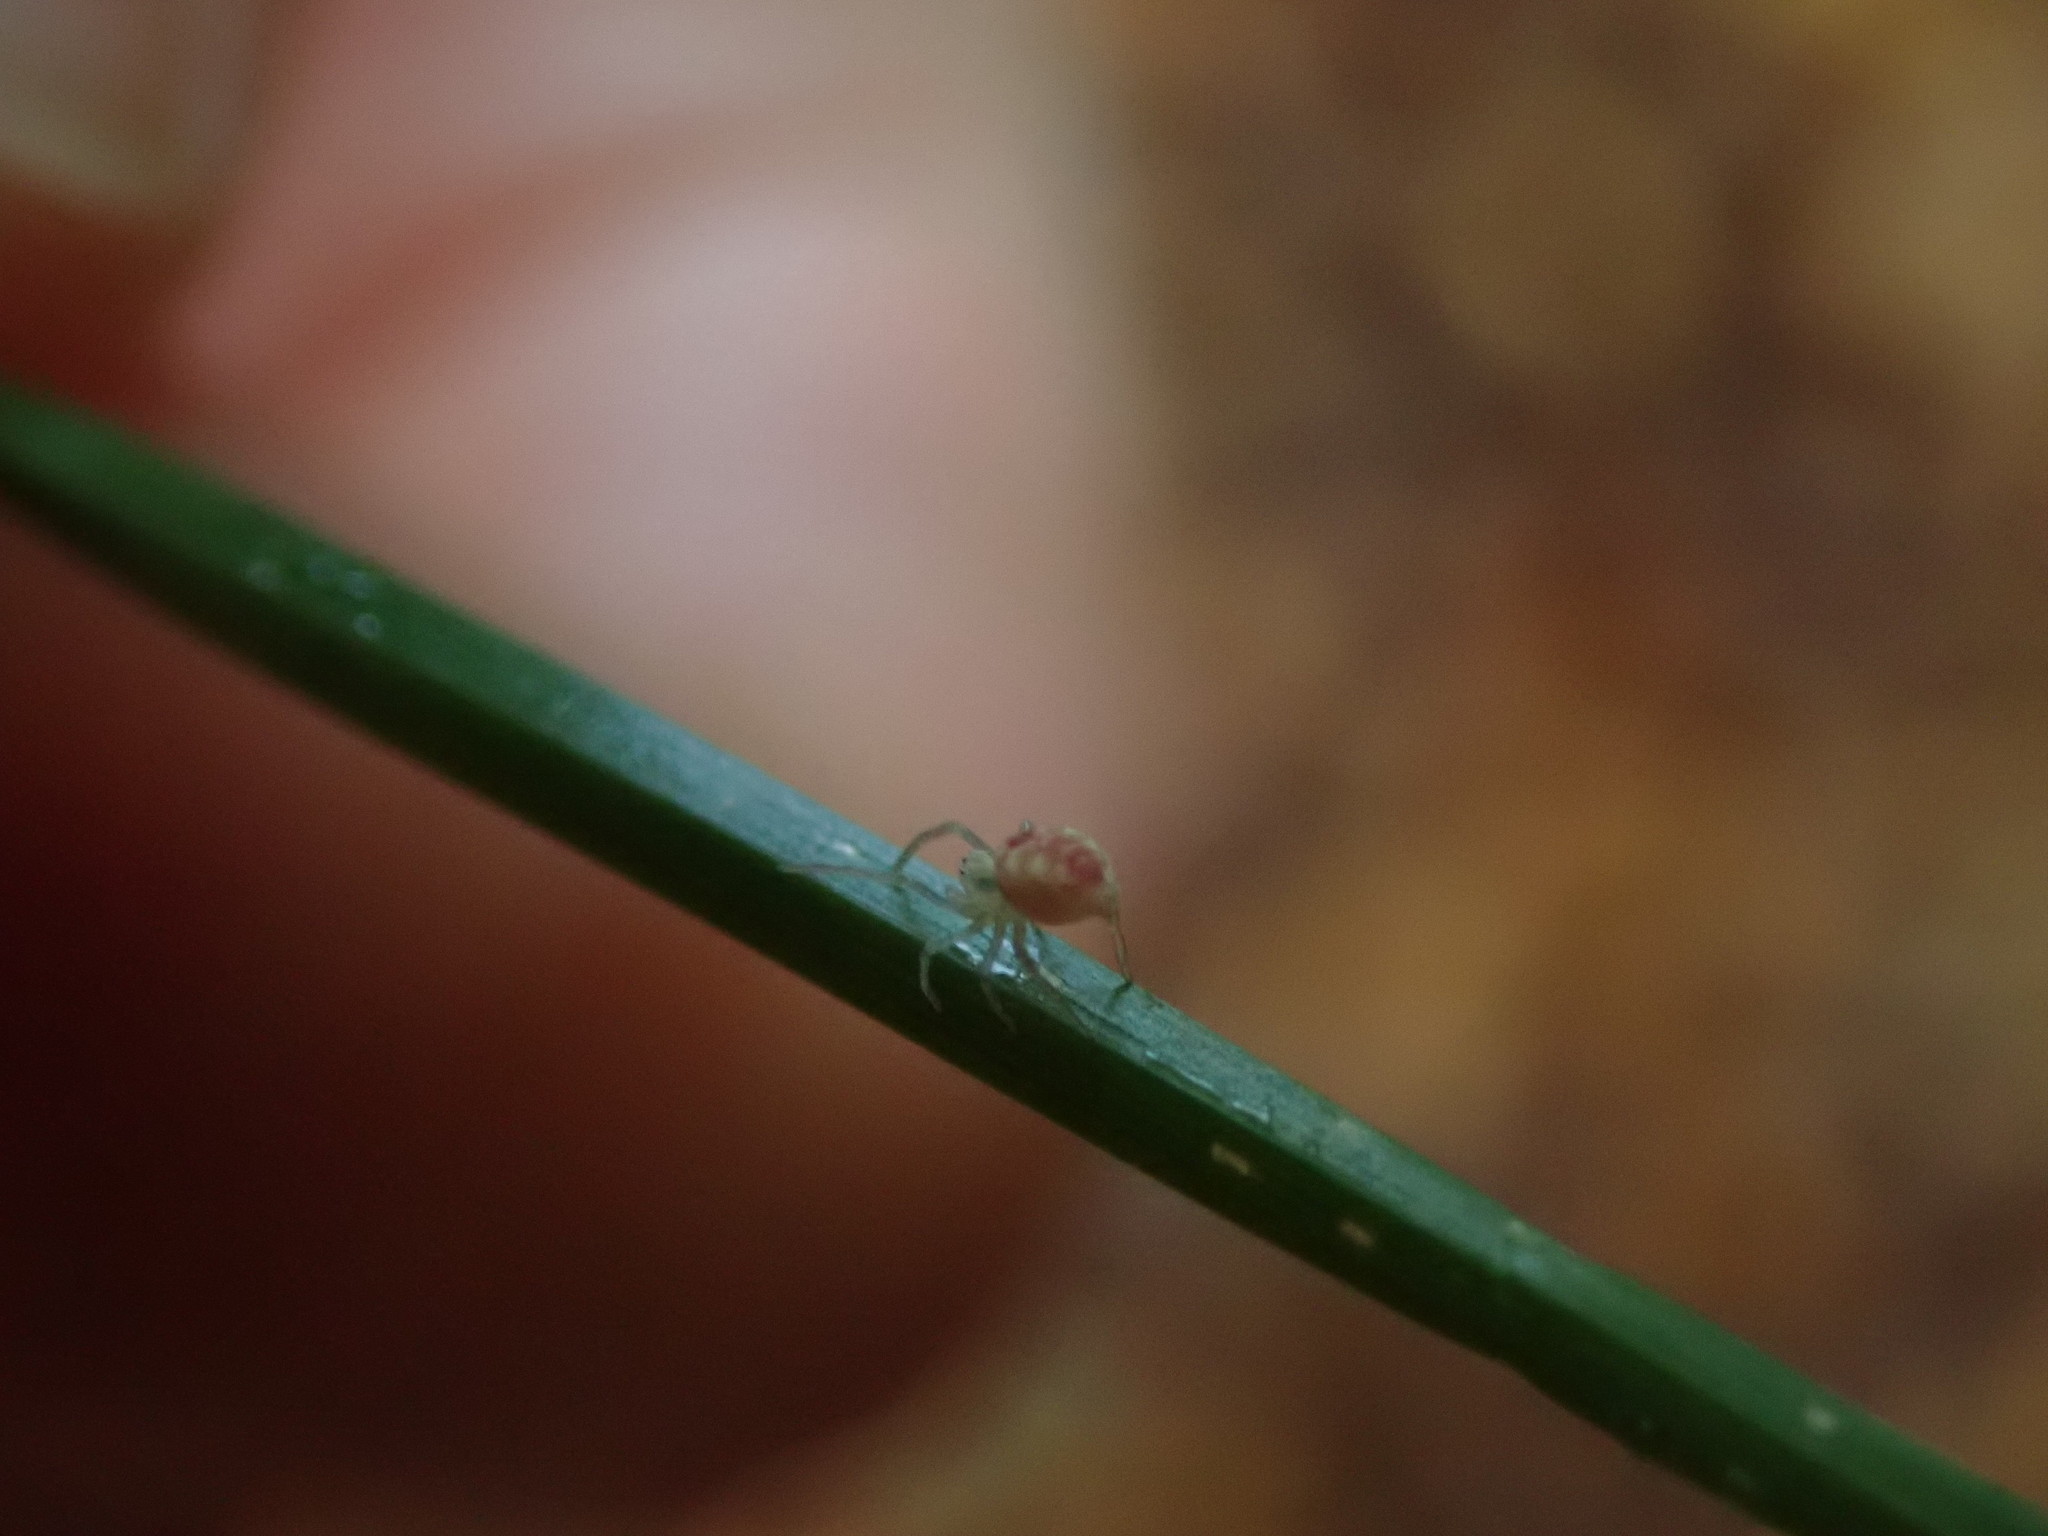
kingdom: Animalia
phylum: Arthropoda
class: Arachnida
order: Araneae
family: Dictynidae
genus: Nigma
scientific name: Nigma puella
